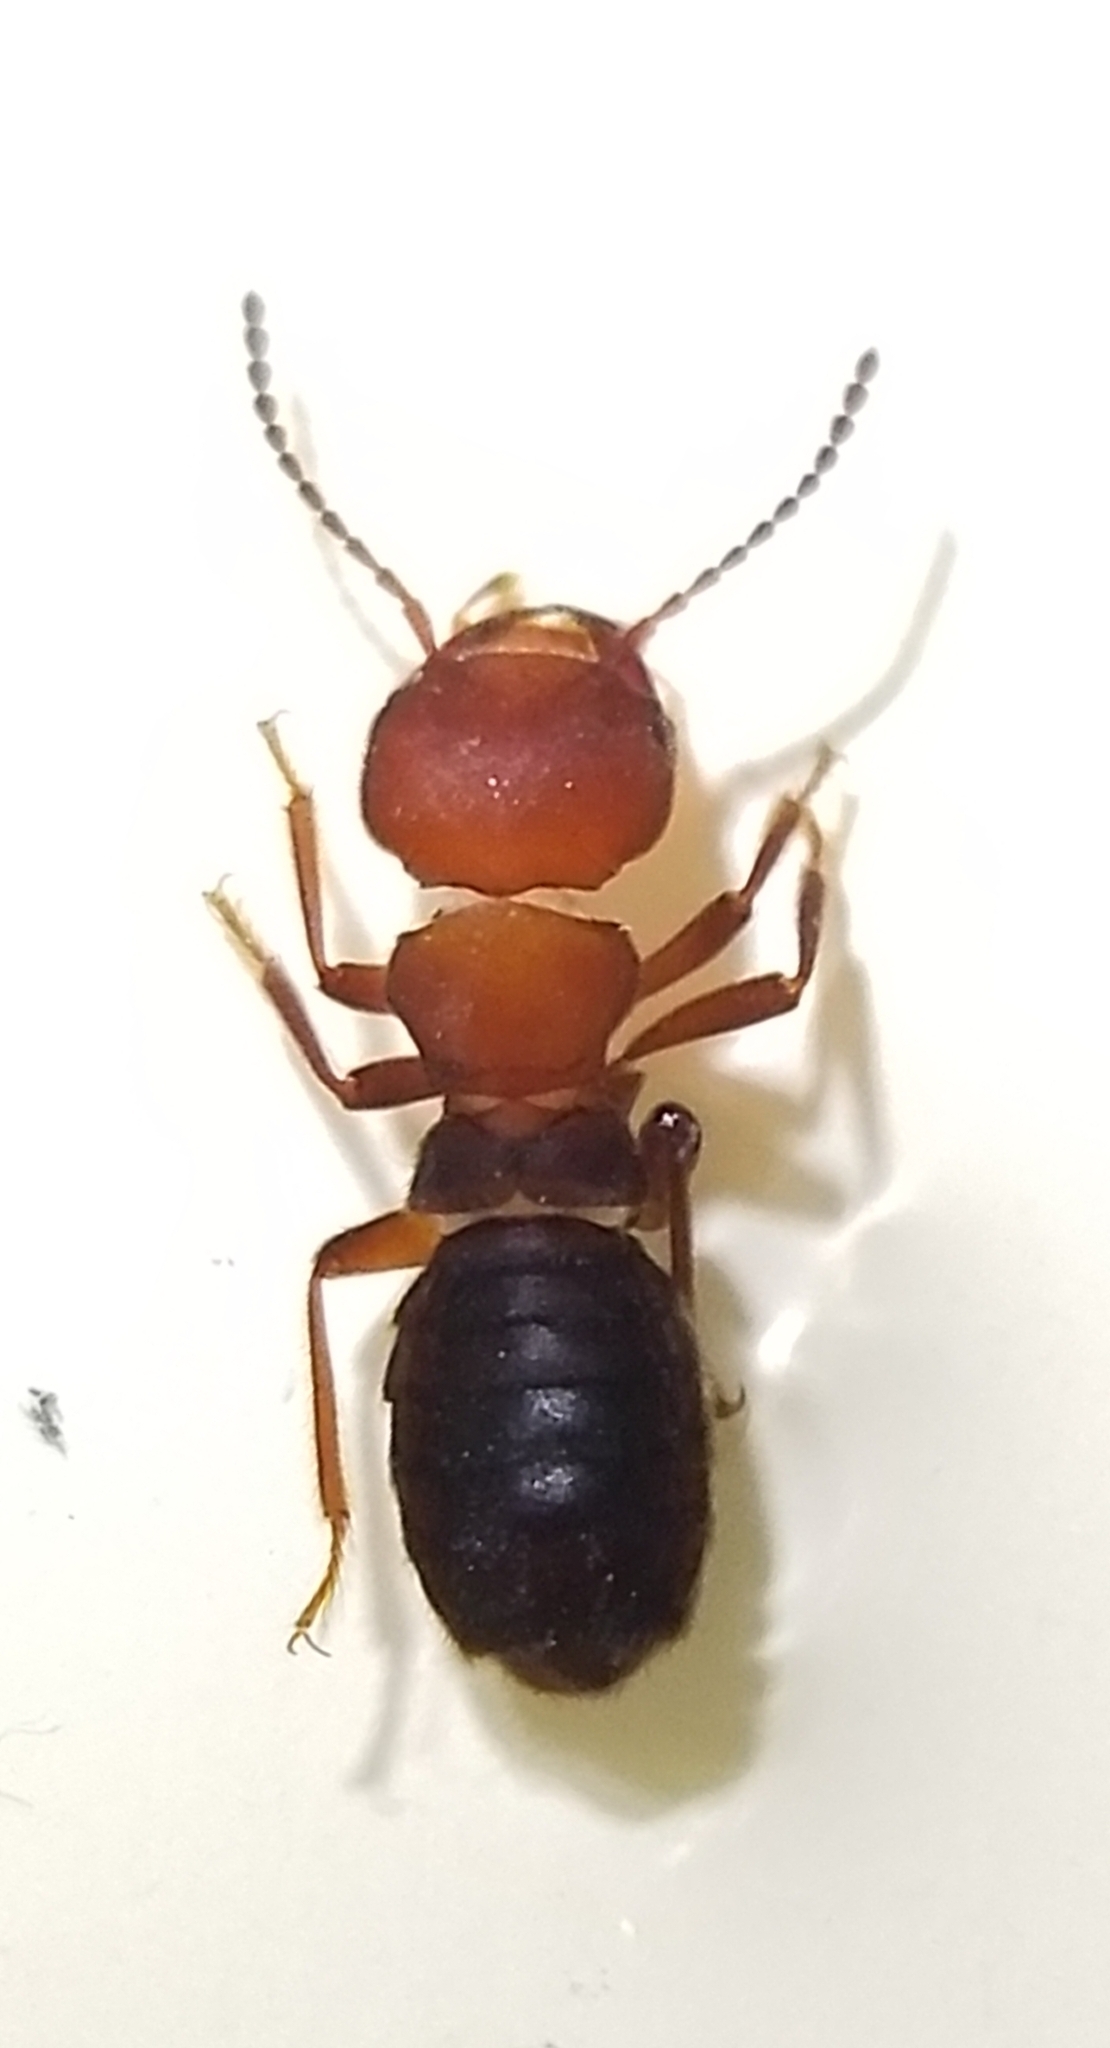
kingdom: Animalia
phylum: Arthropoda
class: Insecta
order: Coleoptera
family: Staphylinidae
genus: Liparocephalus
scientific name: Liparocephalus cordicollis
